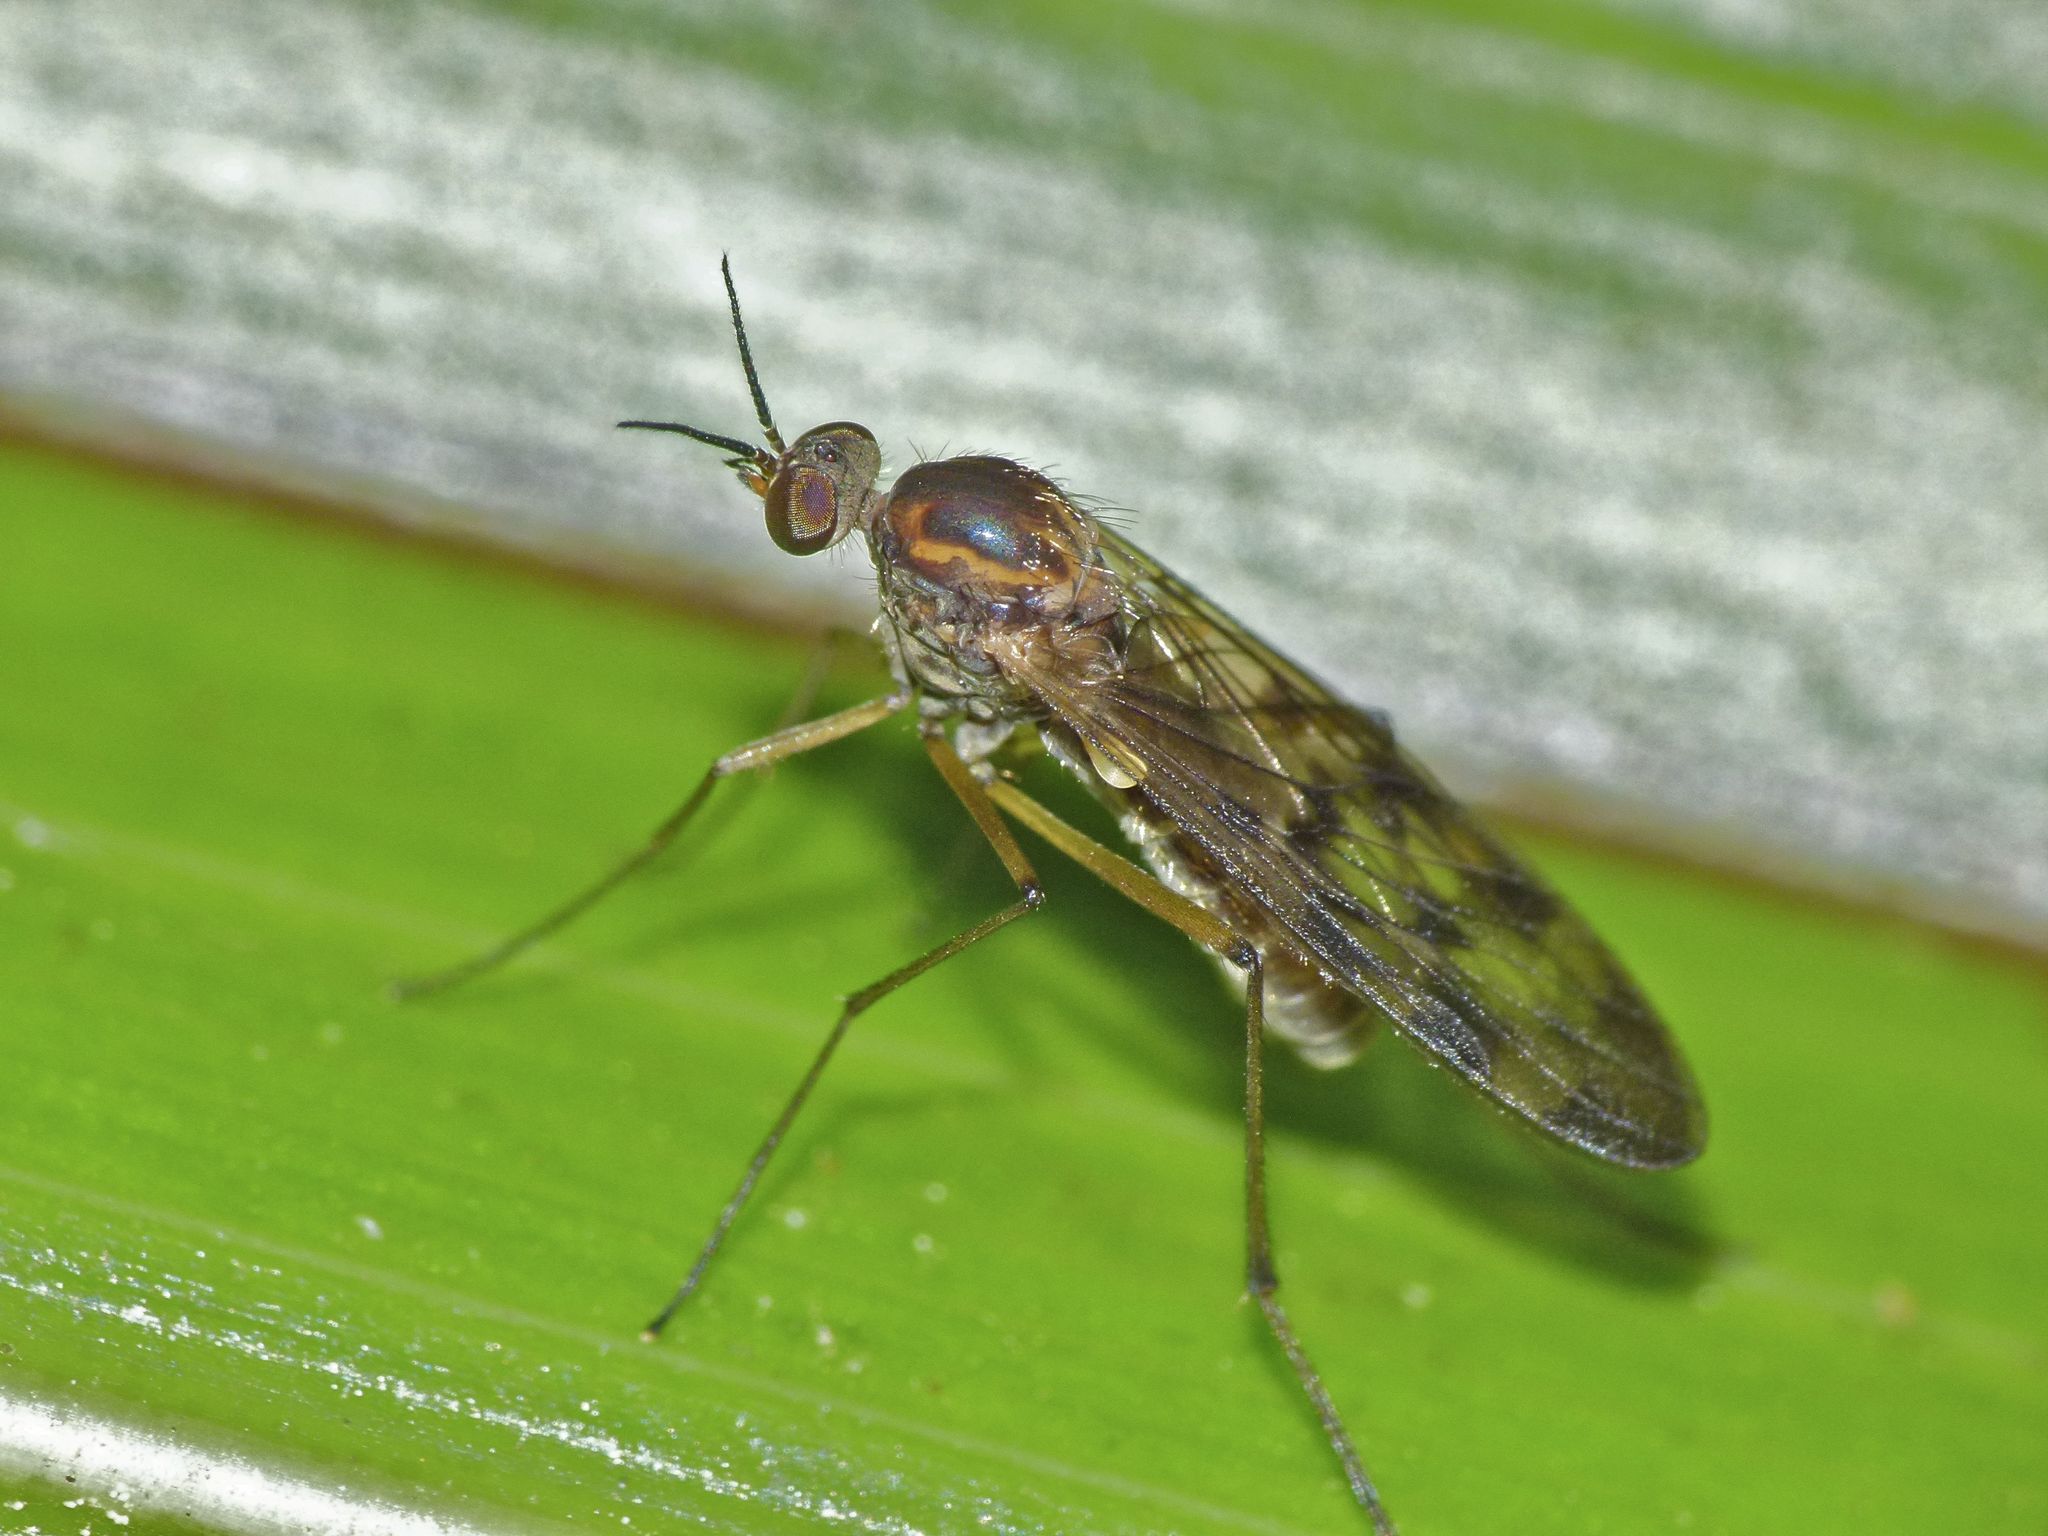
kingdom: Animalia
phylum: Arthropoda
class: Insecta
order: Diptera
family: Anisopodidae
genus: Sylvicola
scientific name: Sylvicola undulatus
